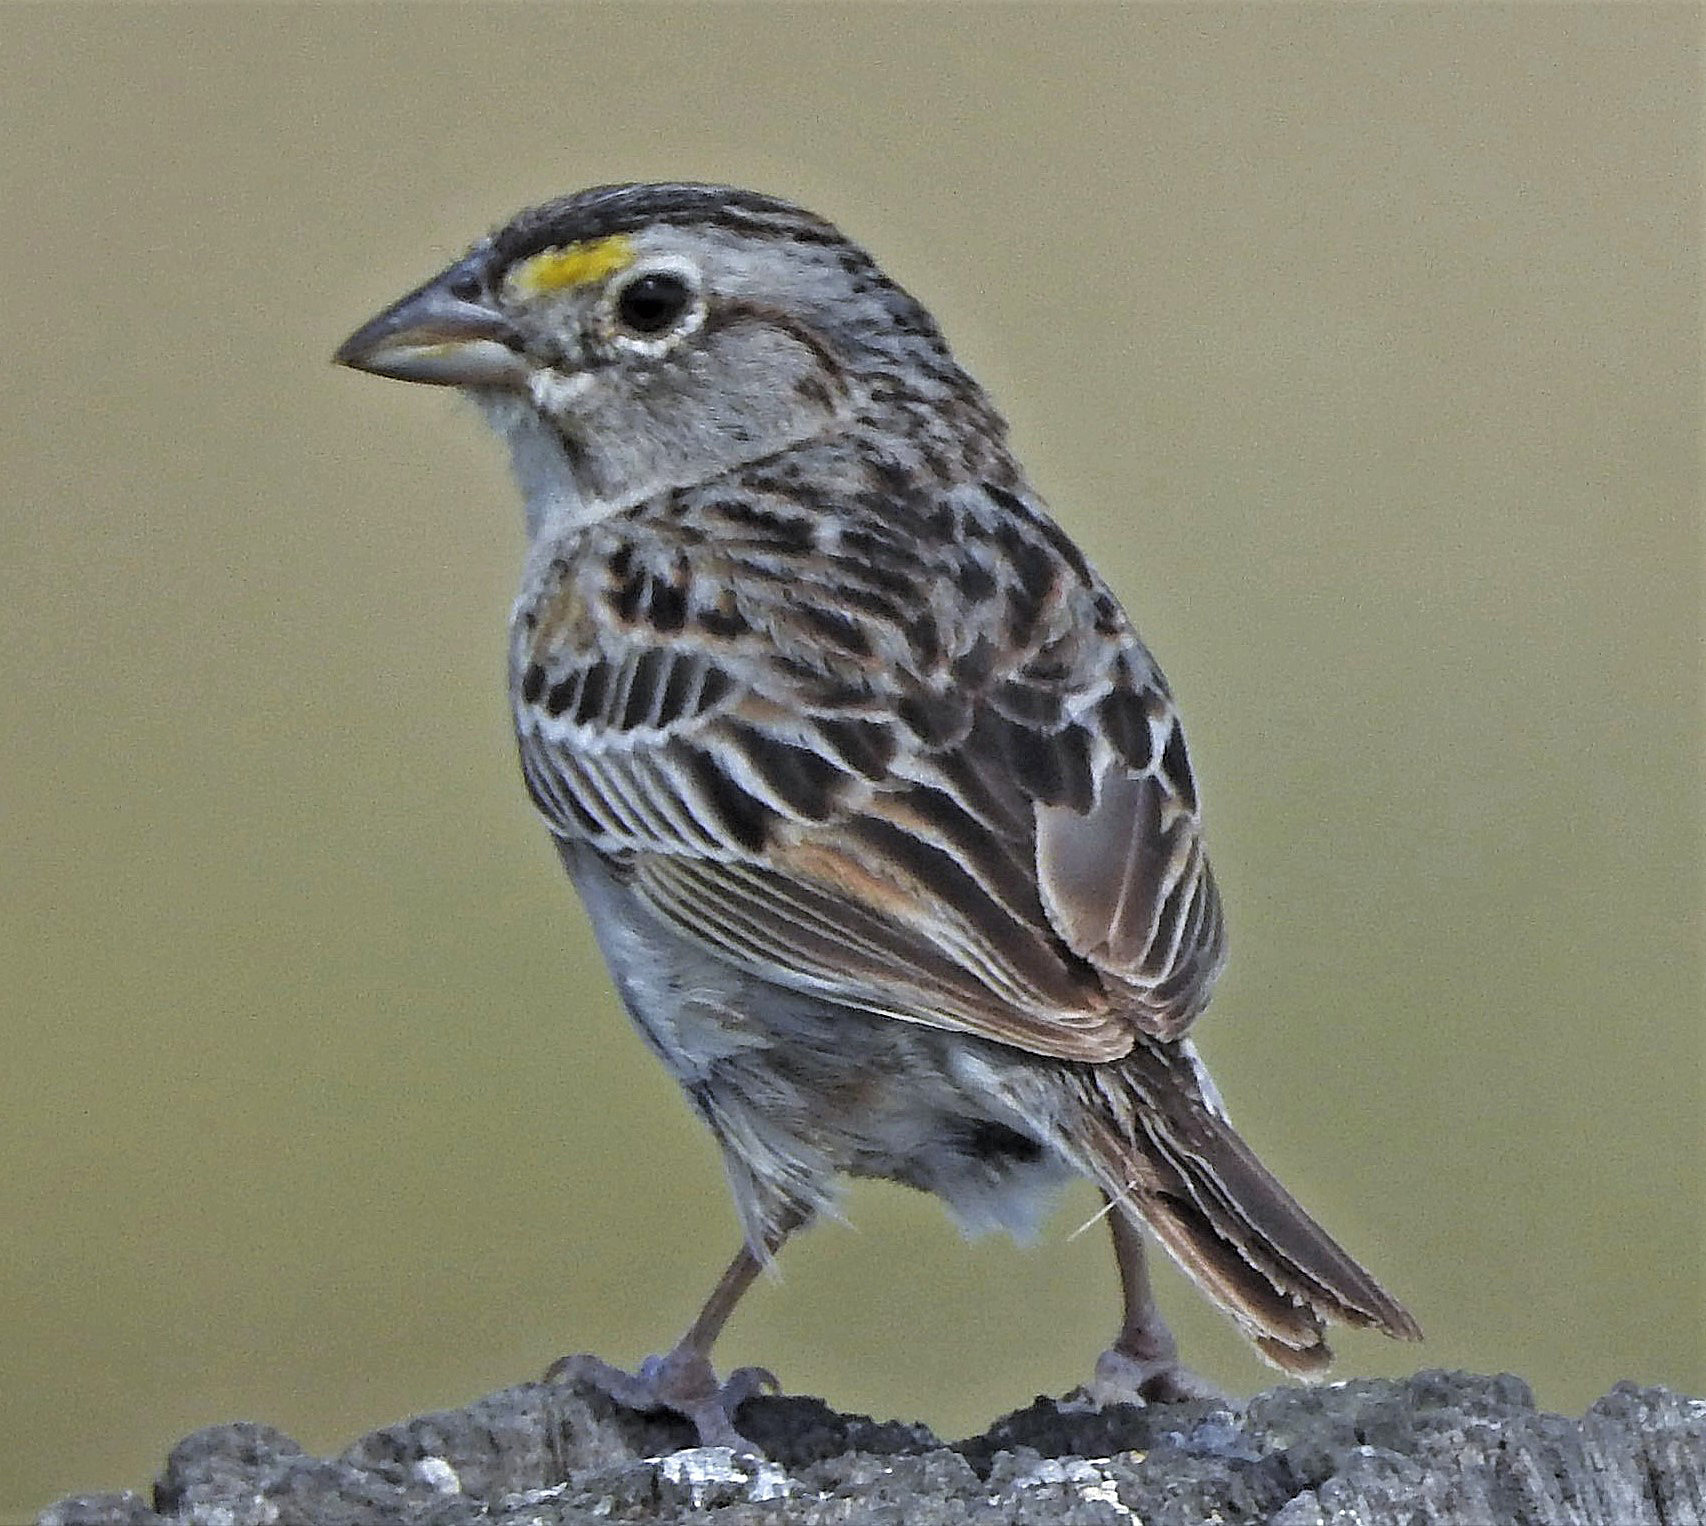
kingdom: Animalia
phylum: Chordata
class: Aves
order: Passeriformes
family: Passerellidae
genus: Ammodramus
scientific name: Ammodramus humeralis
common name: Grassland sparrow
